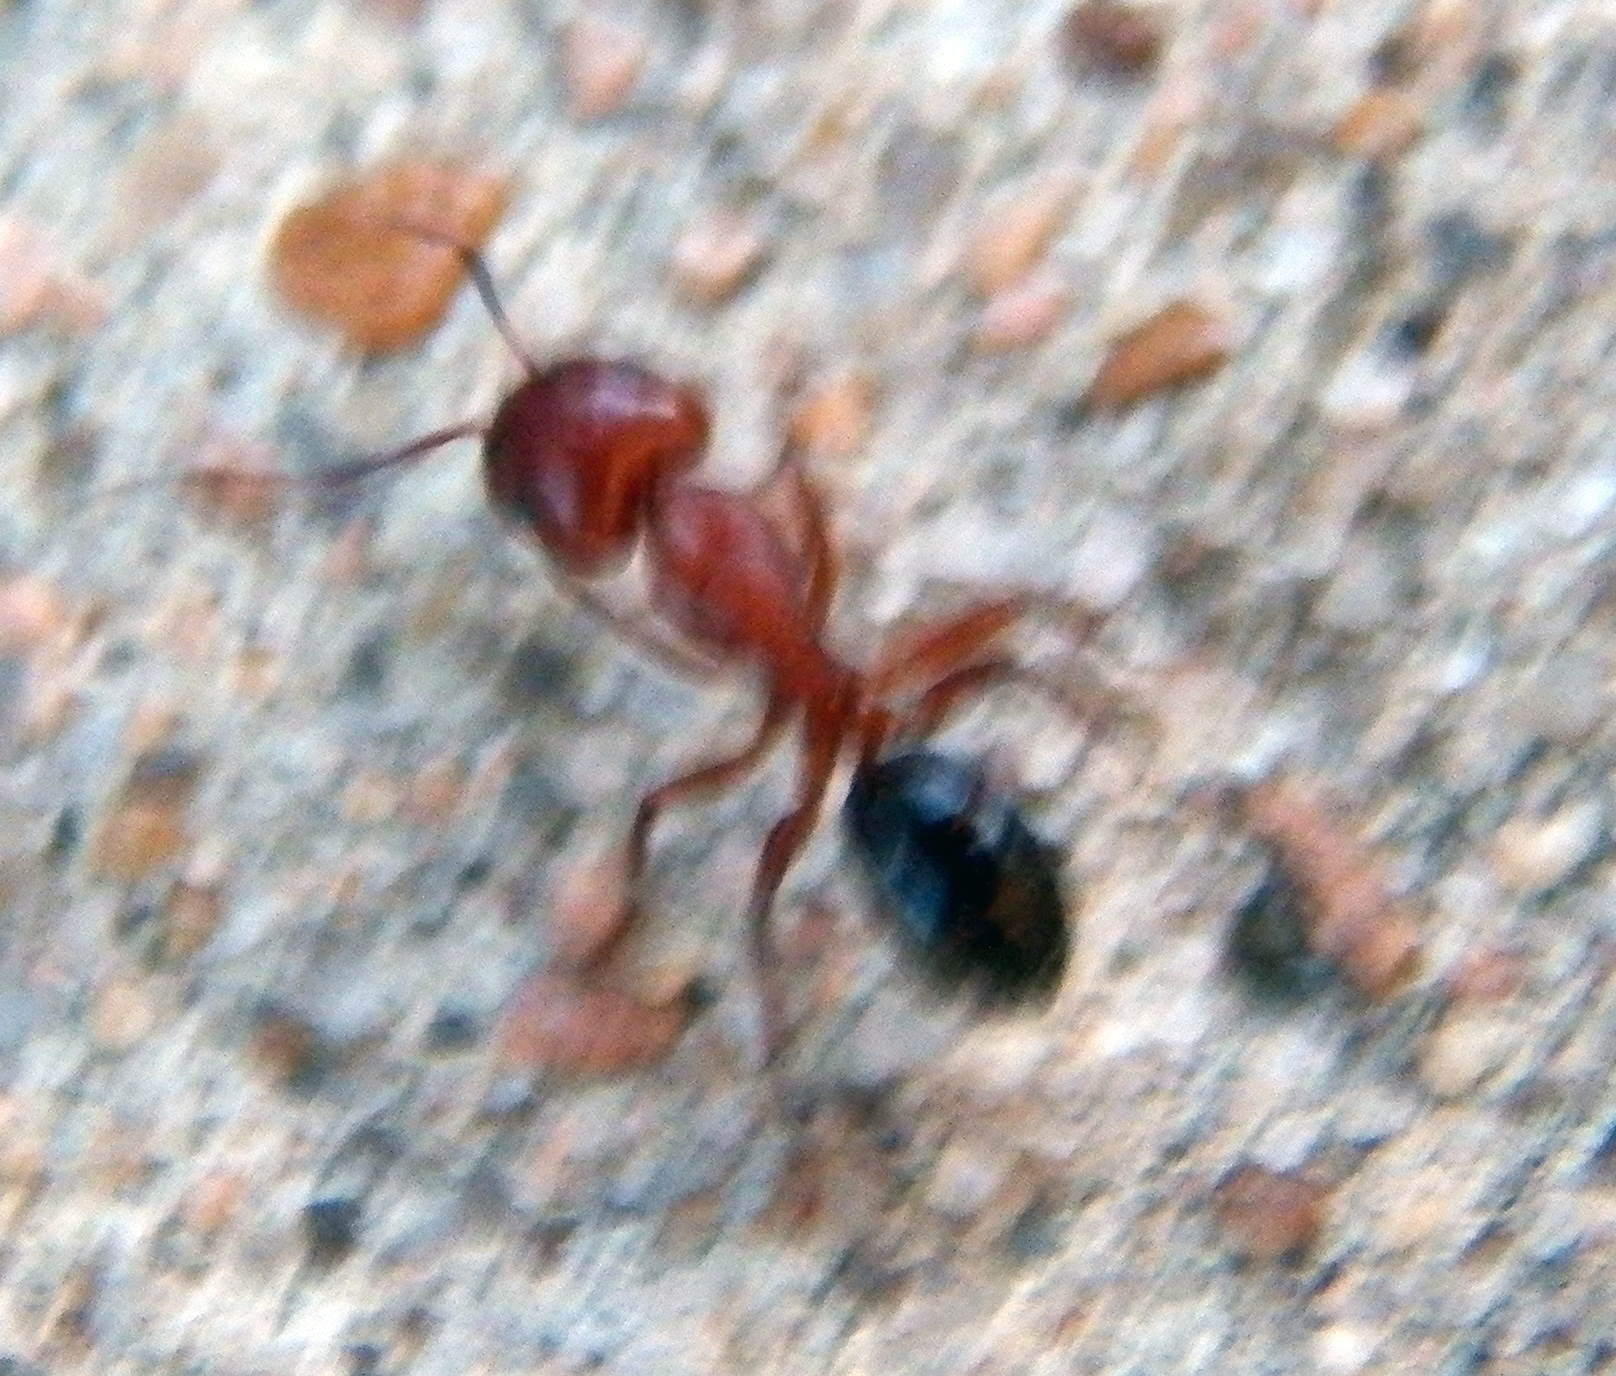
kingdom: Animalia
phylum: Arthropoda
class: Insecta
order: Hymenoptera
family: Formicidae
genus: Camponotus
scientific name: Camponotus decipiens
